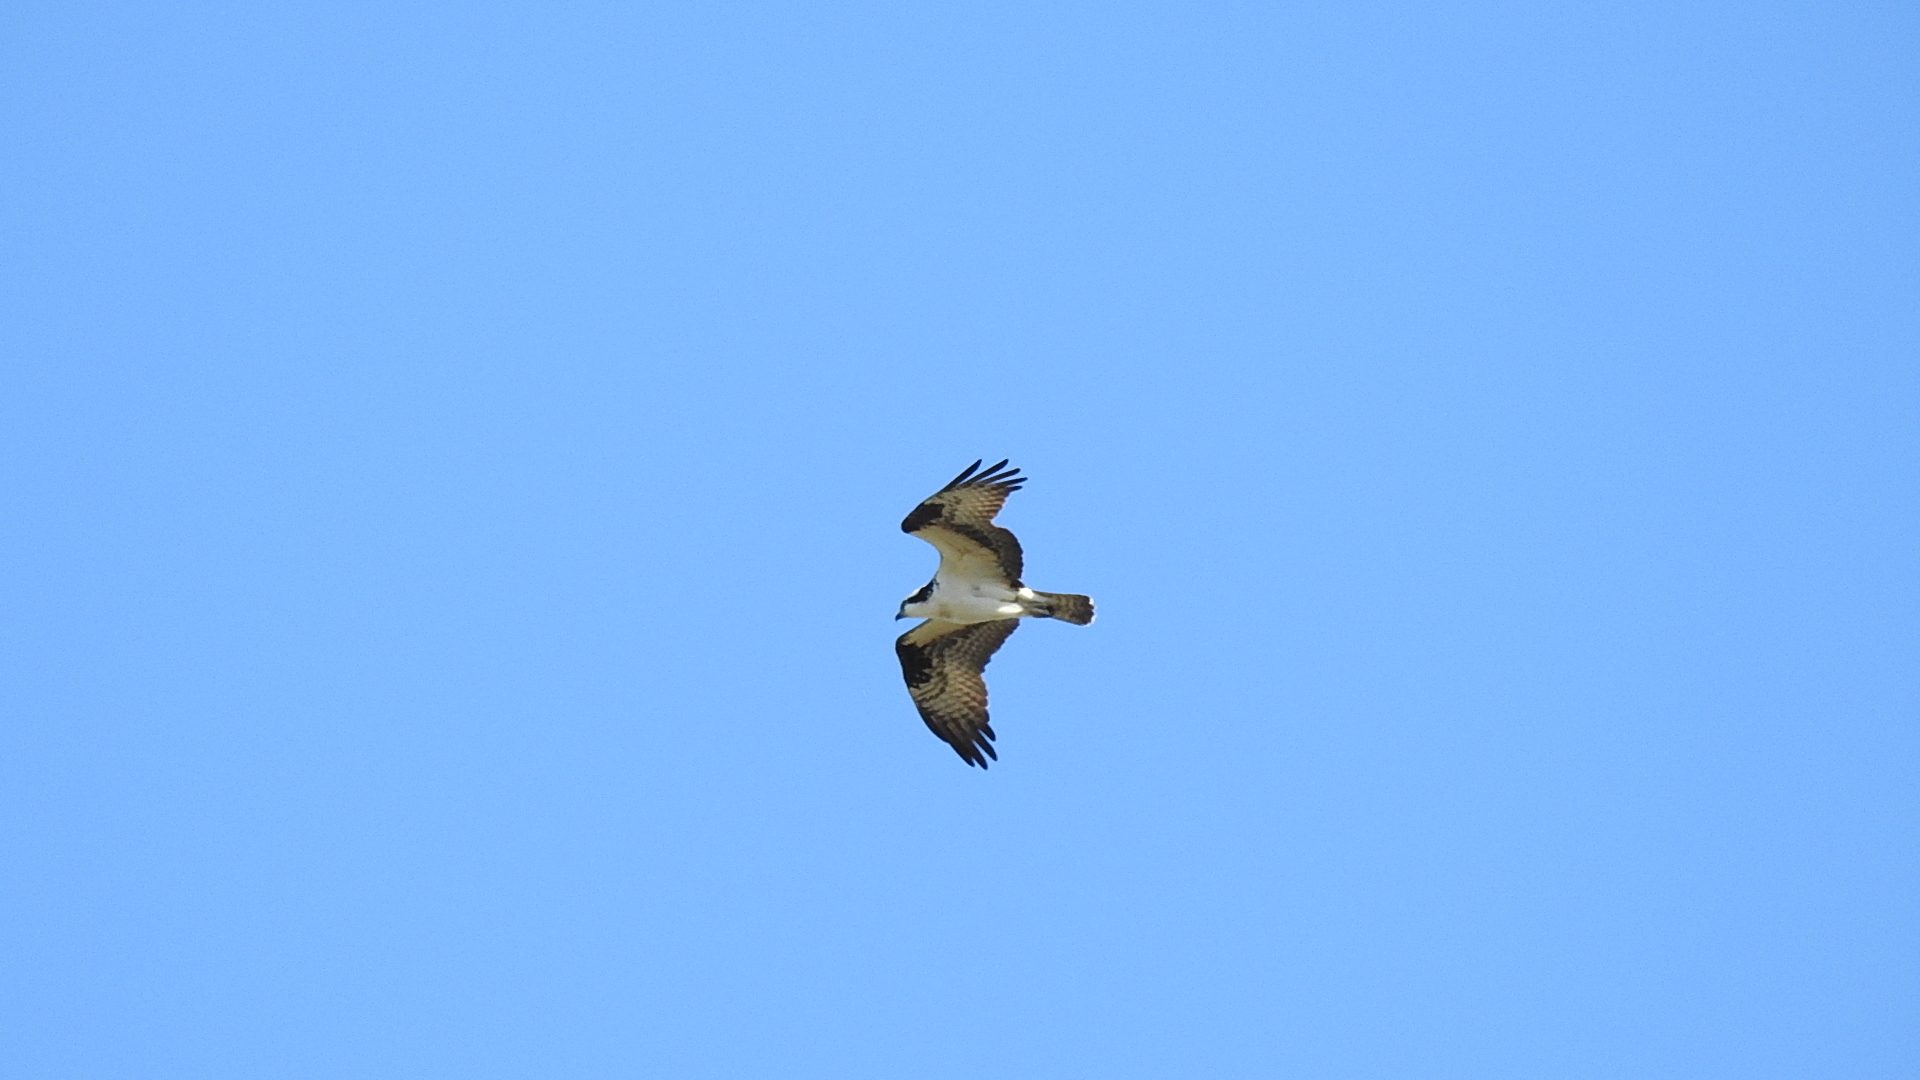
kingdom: Animalia
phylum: Chordata
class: Aves
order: Accipitriformes
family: Pandionidae
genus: Pandion
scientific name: Pandion haliaetus
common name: Osprey
